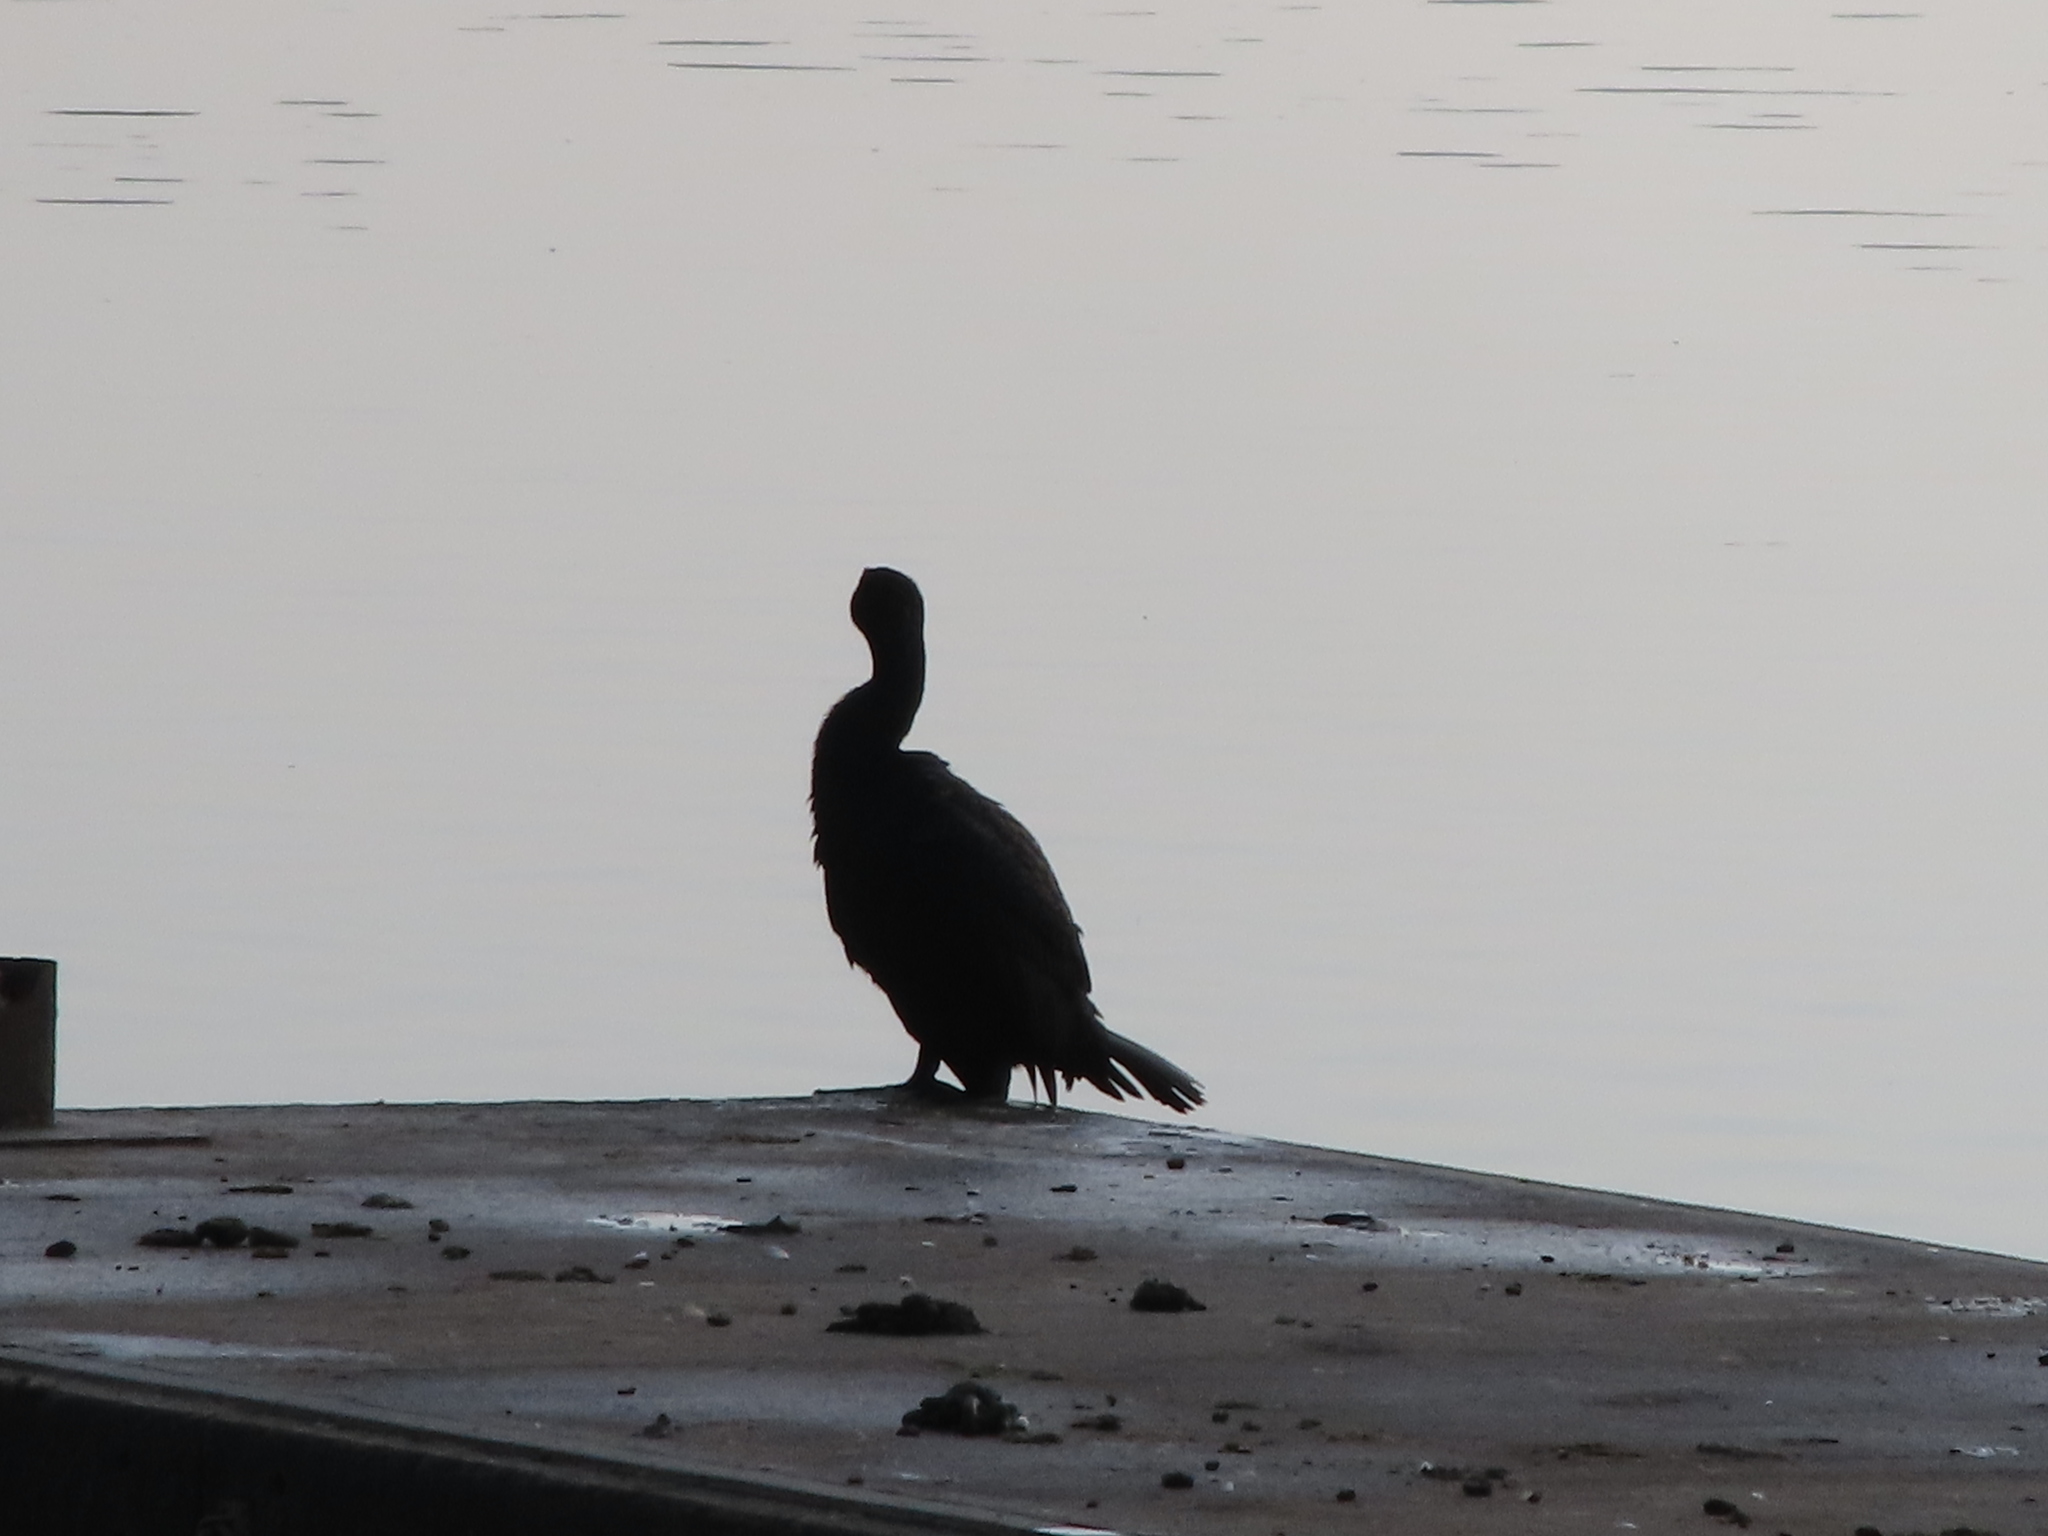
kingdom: Animalia
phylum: Chordata
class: Aves
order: Suliformes
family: Phalacrocoracidae
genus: Phalacrocorax
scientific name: Phalacrocorax carbo
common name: Great cormorant
